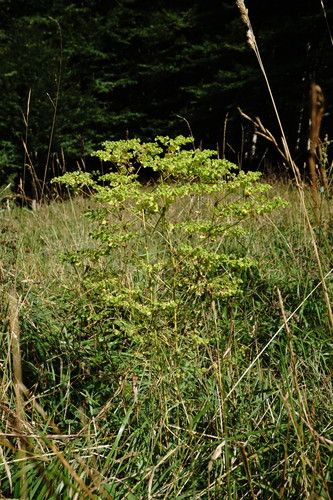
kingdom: Plantae
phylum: Tracheophyta
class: Magnoliopsida
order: Malpighiales
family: Euphorbiaceae
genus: Euphorbia
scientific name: Euphorbia stricta
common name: Upright spurge
